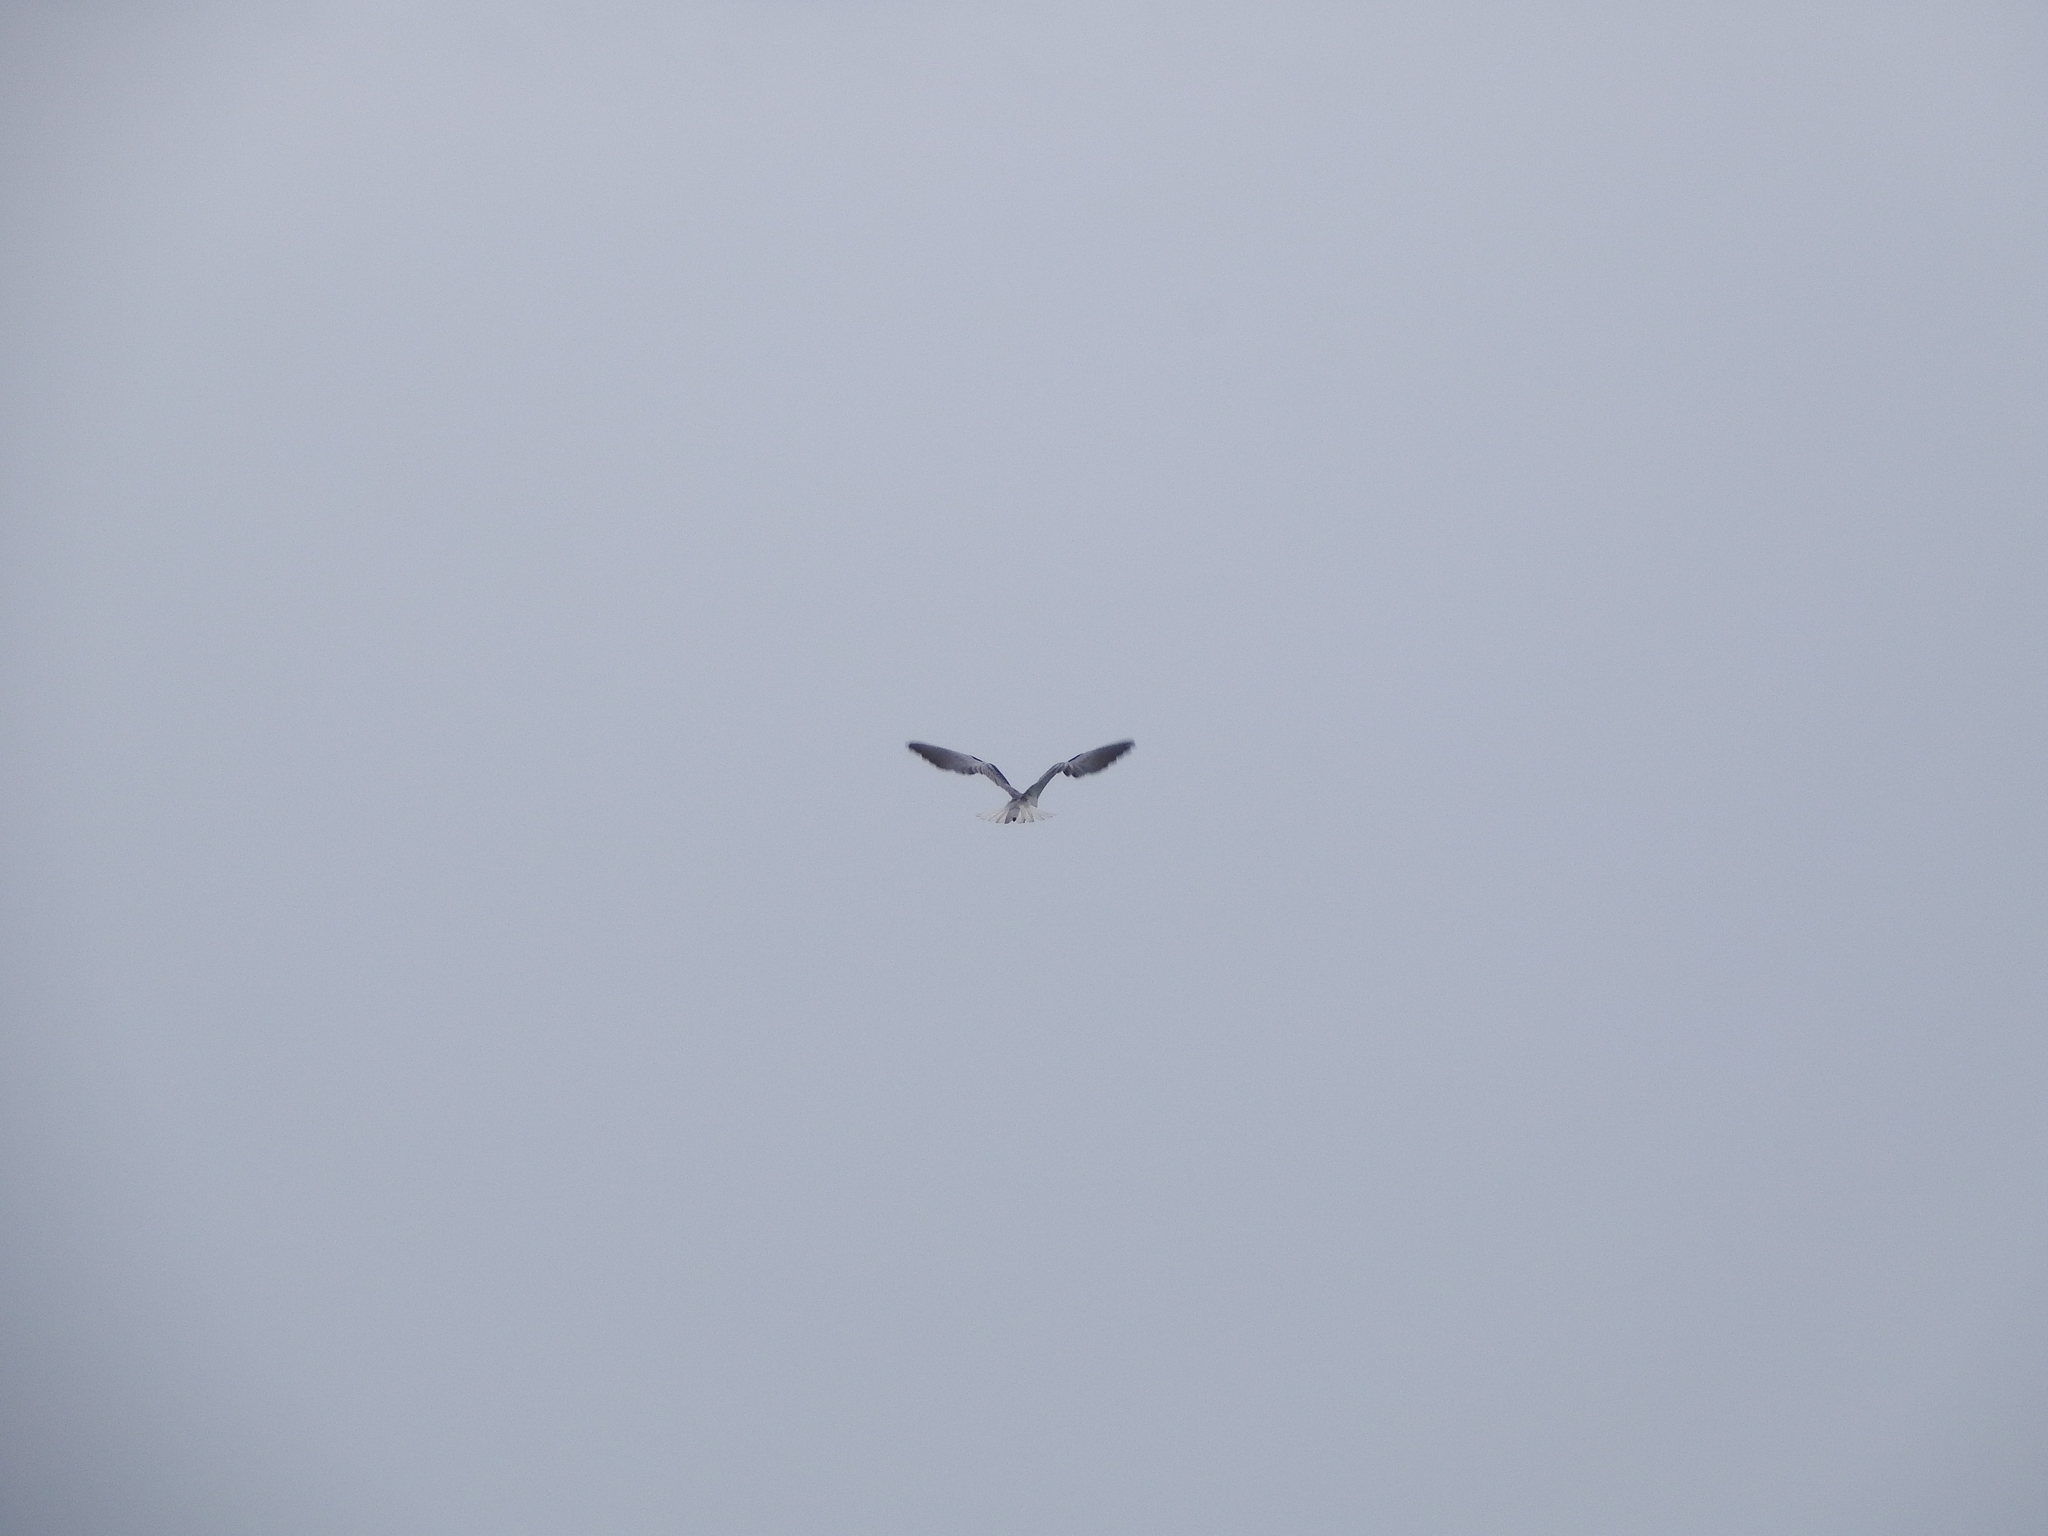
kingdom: Animalia
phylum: Chordata
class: Aves
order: Accipitriformes
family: Accipitridae
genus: Elanus
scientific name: Elanus caeruleus
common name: Black-winged kite
